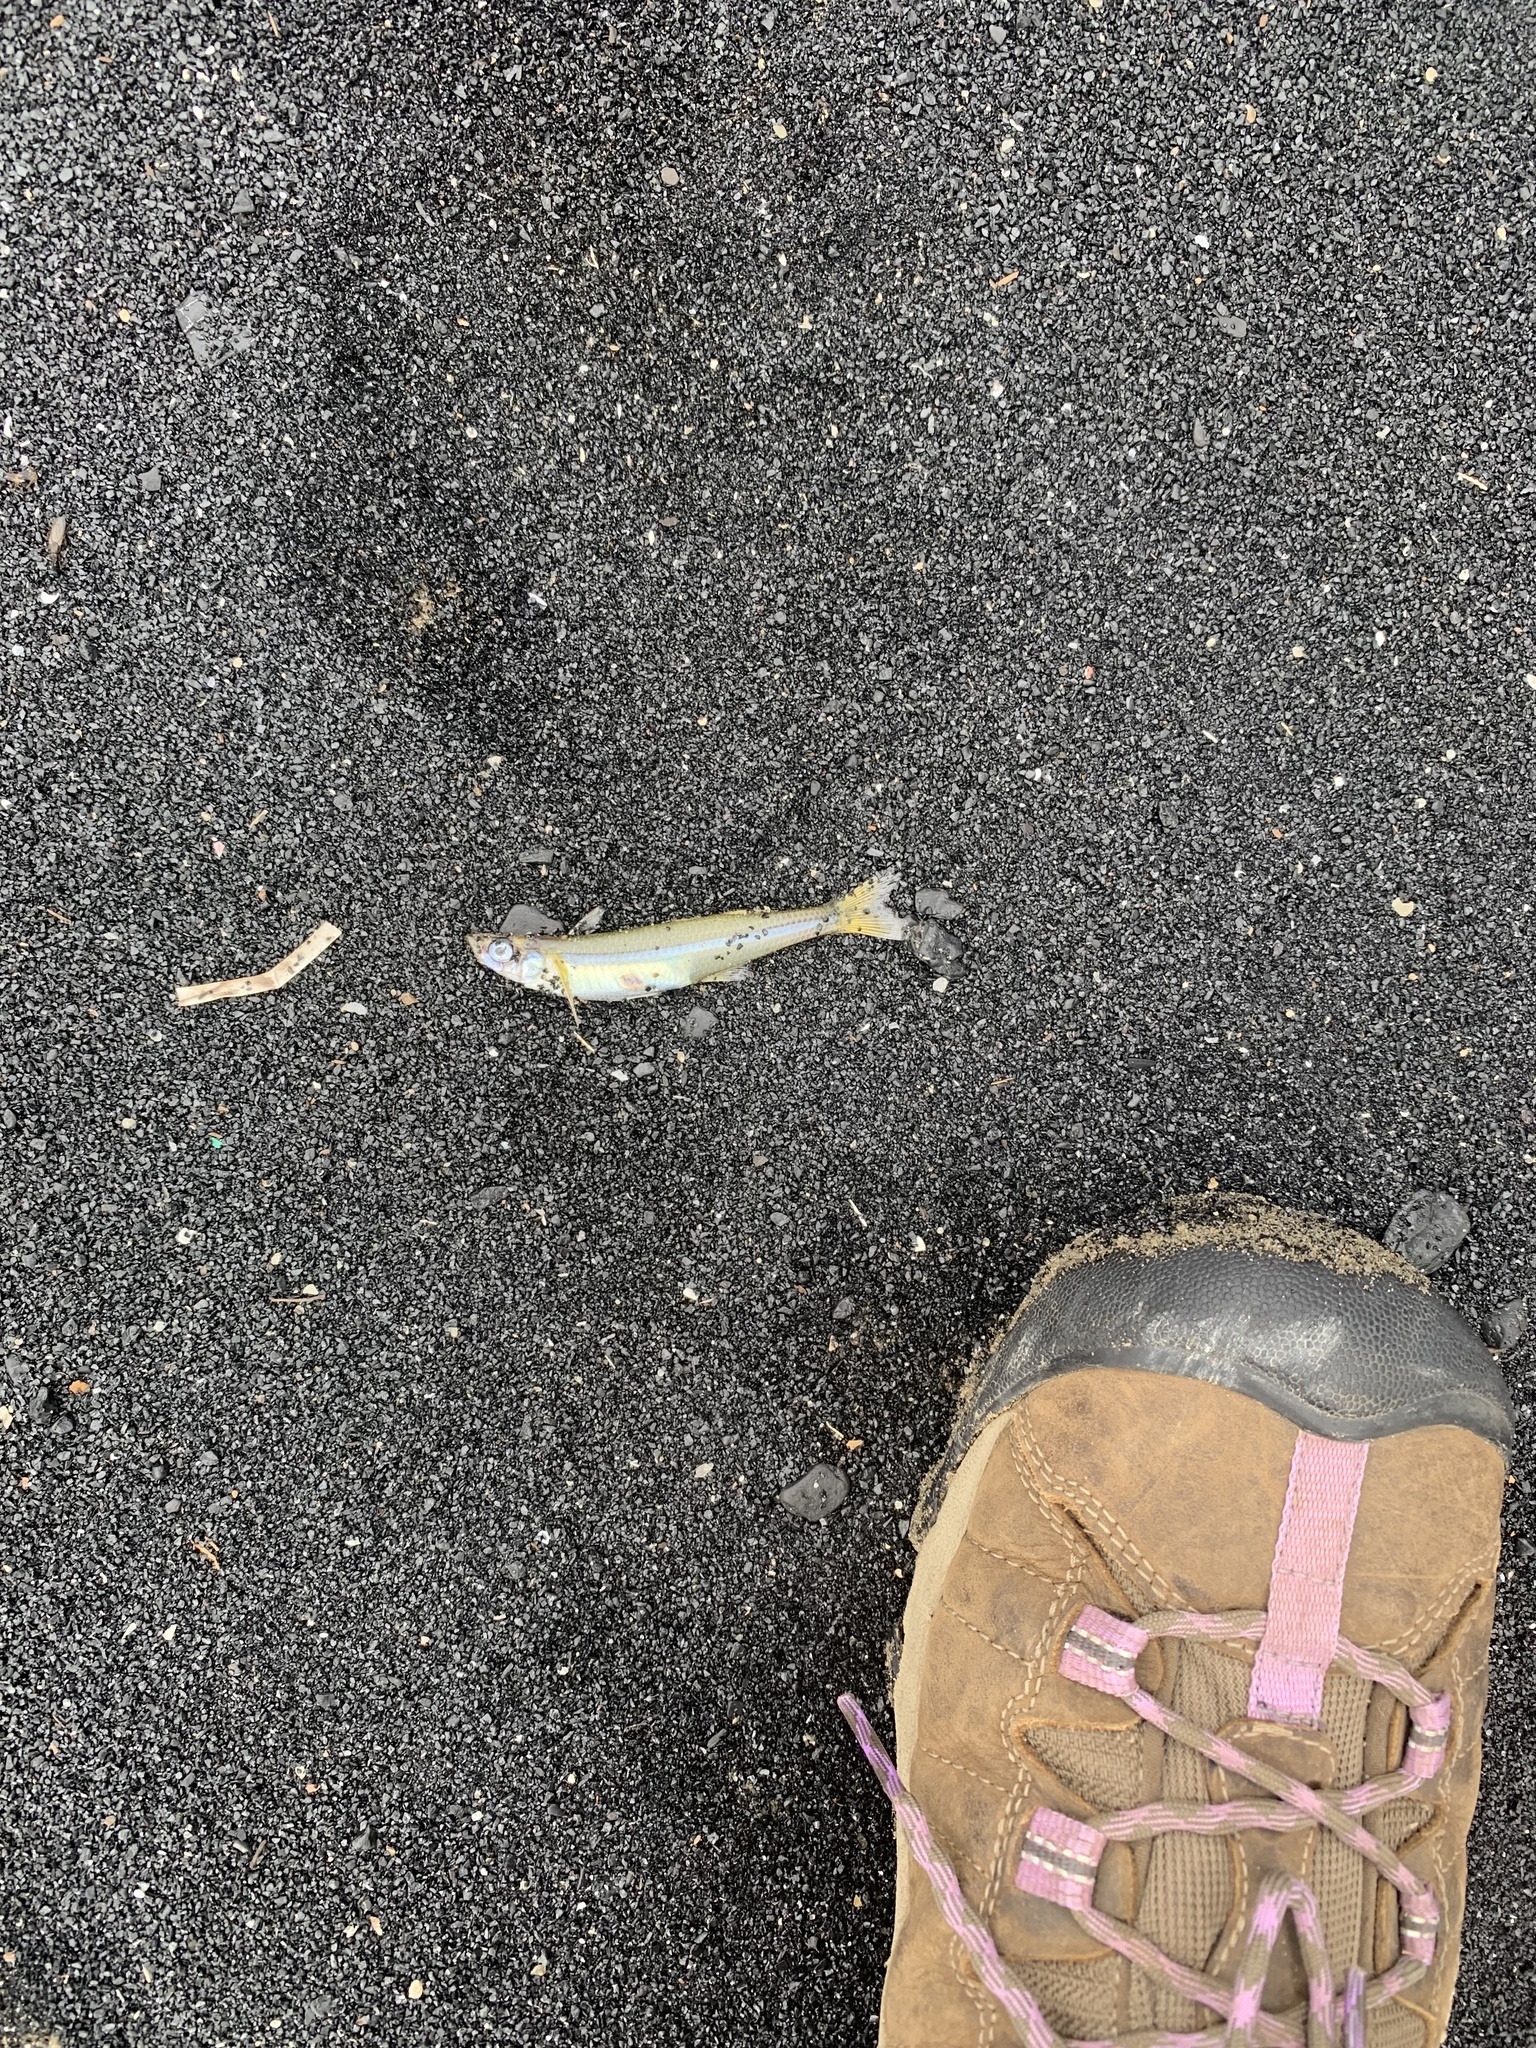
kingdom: Animalia
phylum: Chordata
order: Atheriniformes
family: Atherinopsidae
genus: Menidia
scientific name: Menidia menidia
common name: Atlantic silverside
